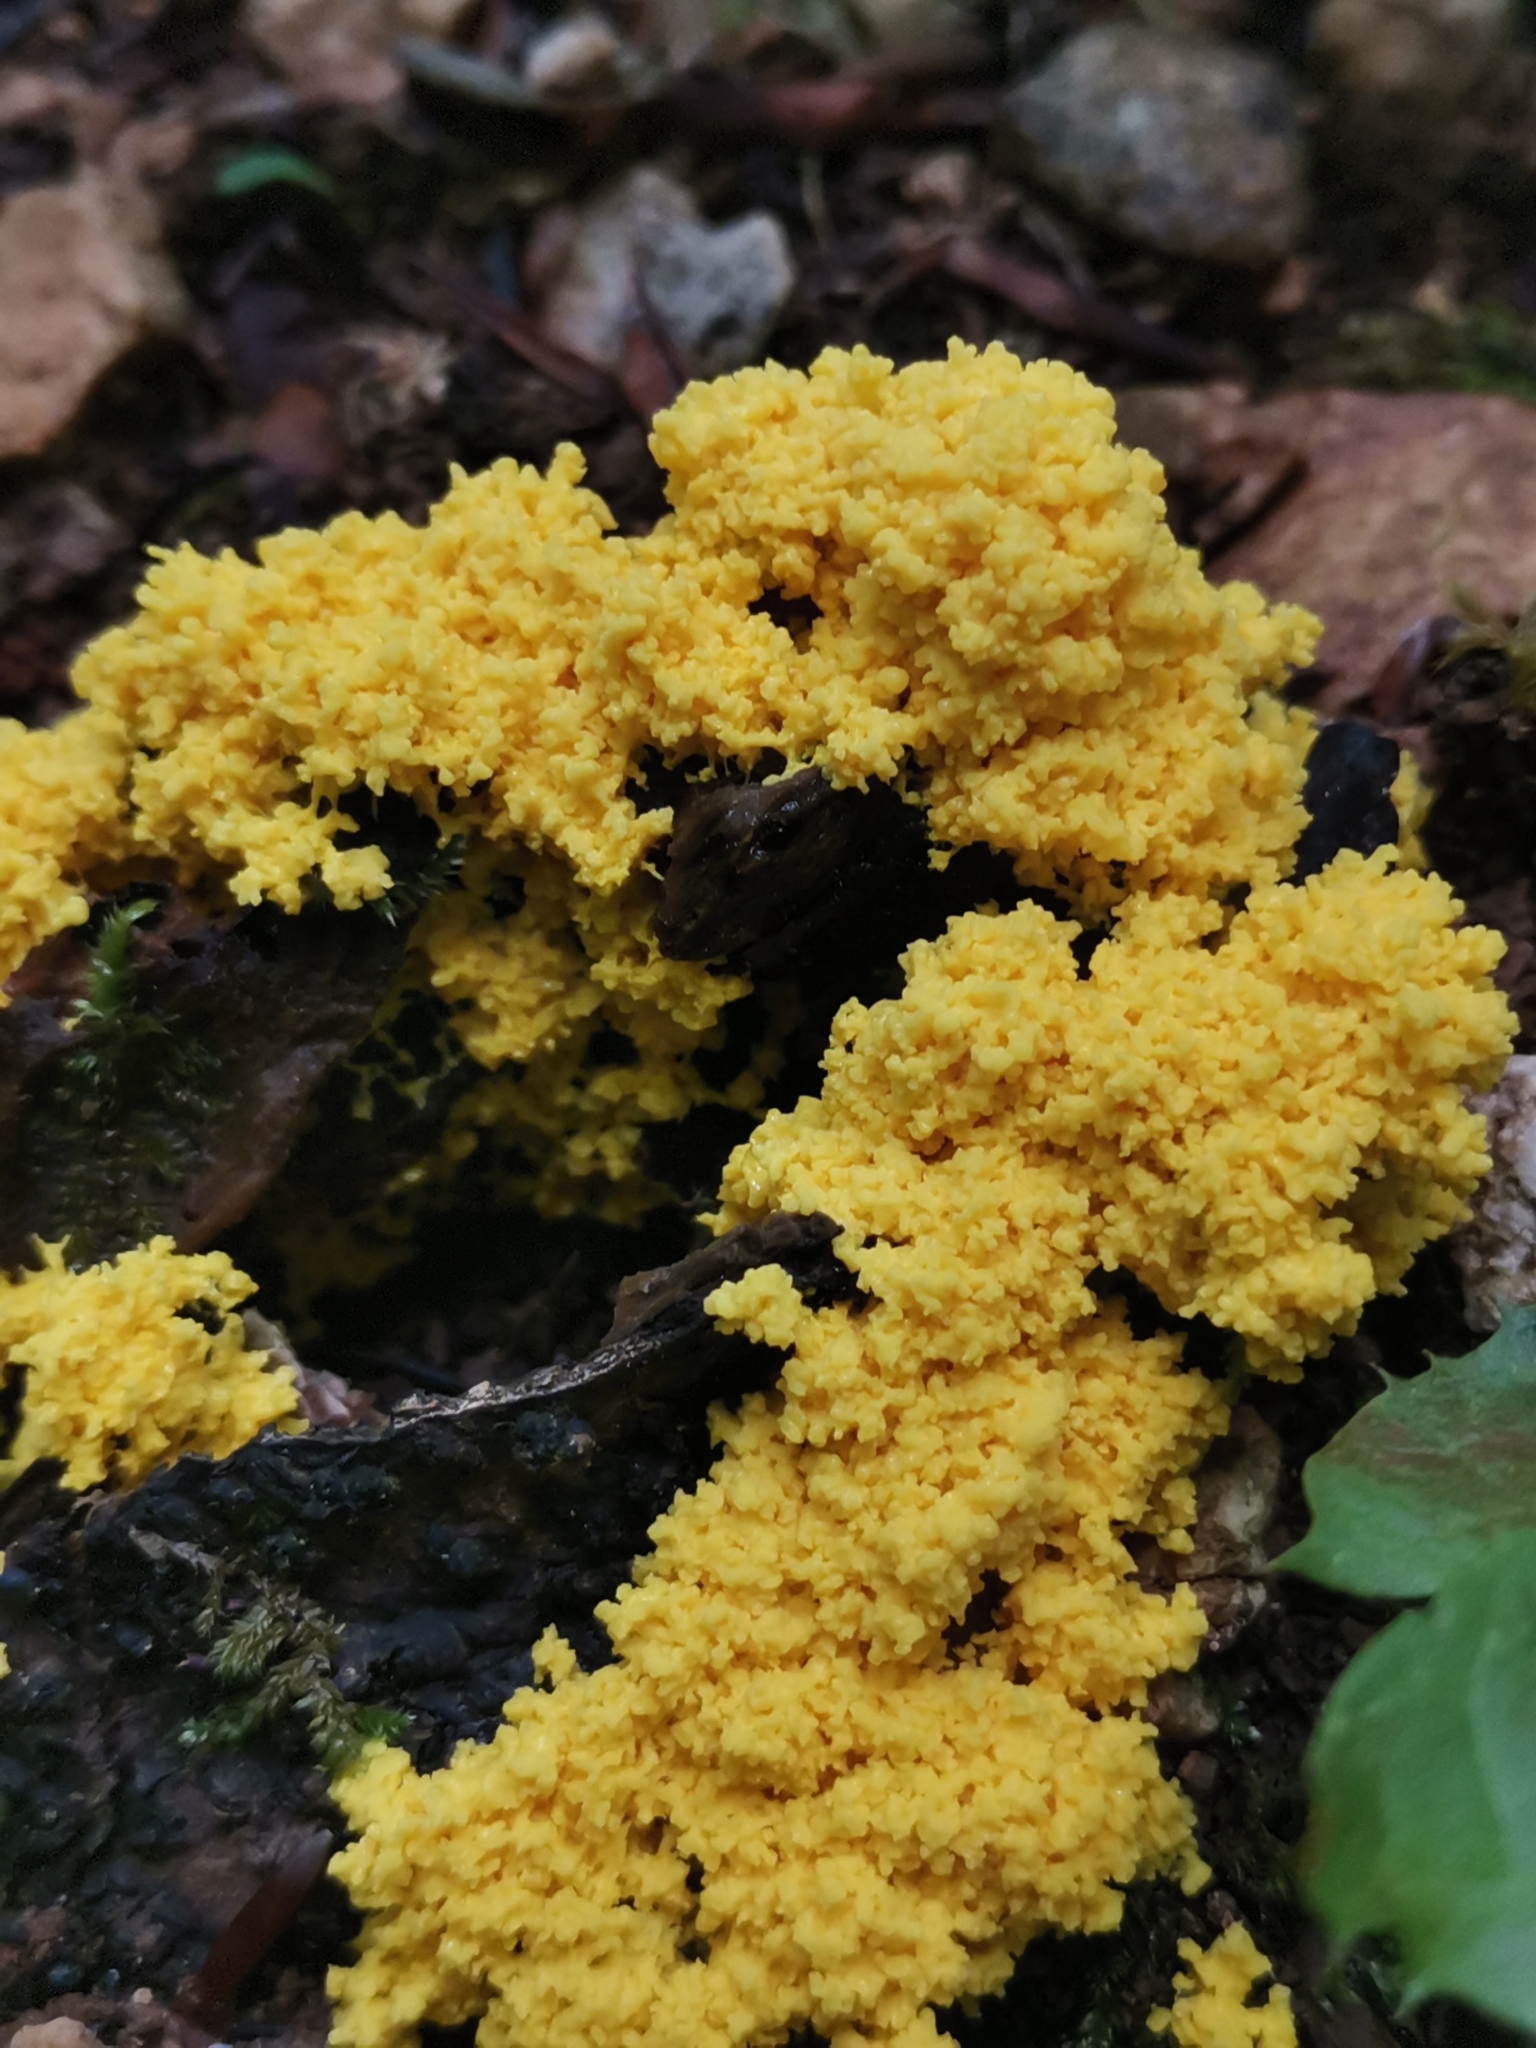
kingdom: Protozoa
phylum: Mycetozoa
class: Myxomycetes
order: Physarales
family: Physaraceae
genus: Fuligo
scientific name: Fuligo septica
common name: Dog vomit slime mold
